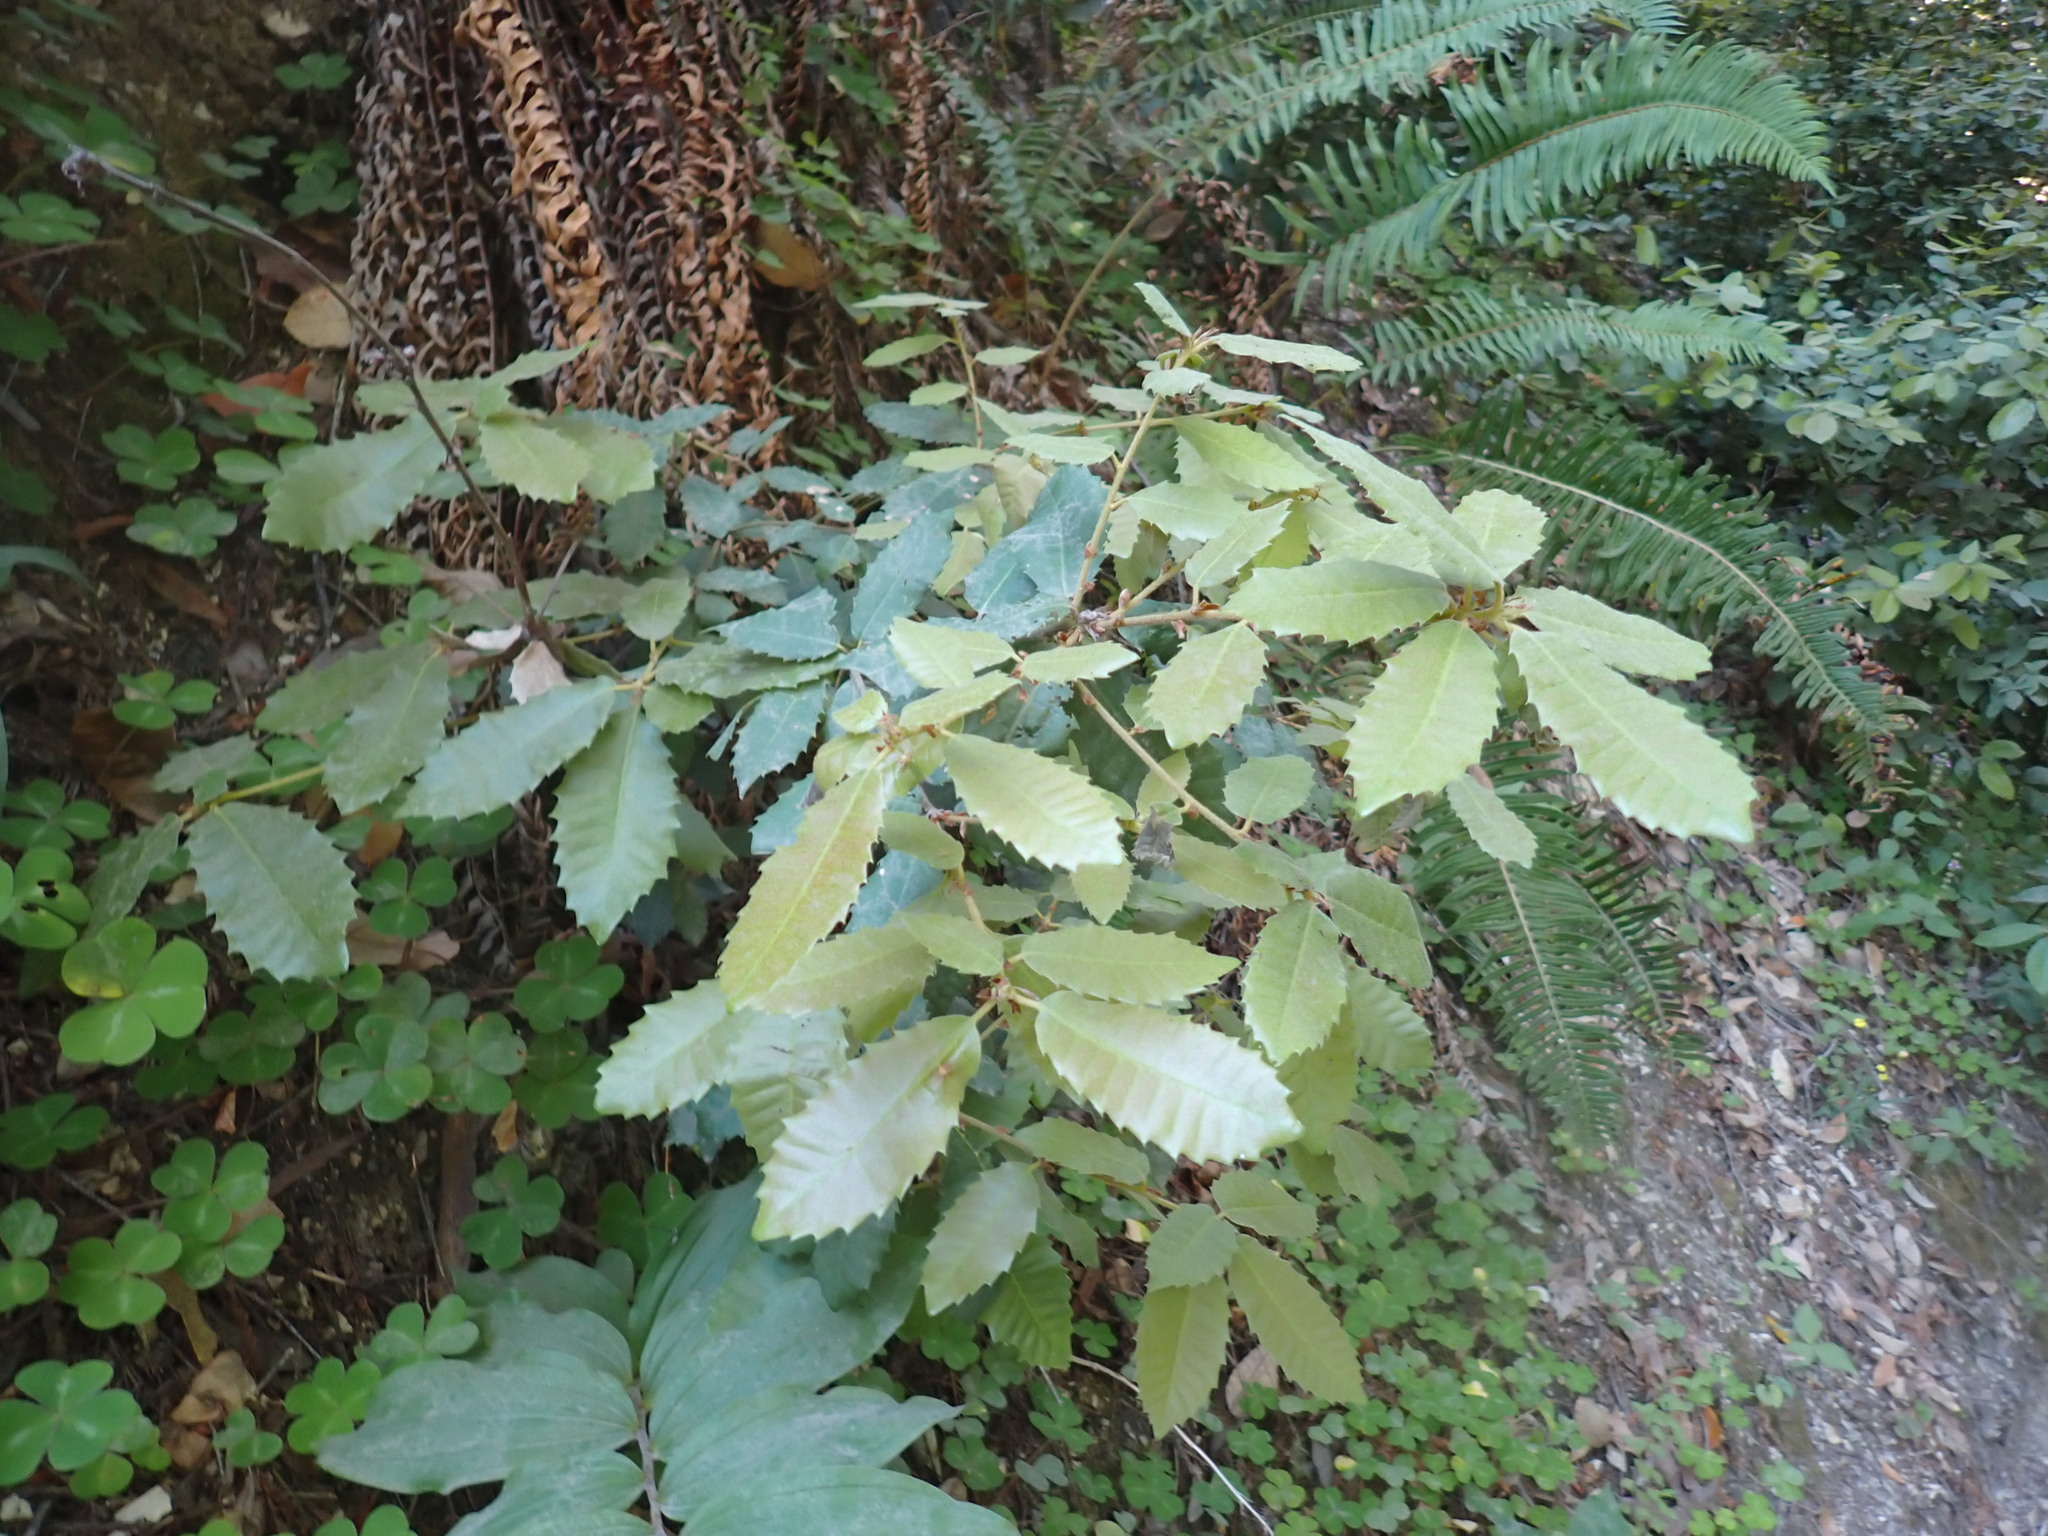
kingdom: Plantae
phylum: Tracheophyta
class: Magnoliopsida
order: Fagales
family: Fagaceae
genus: Notholithocarpus
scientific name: Notholithocarpus densiflorus
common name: Tan bark oak
